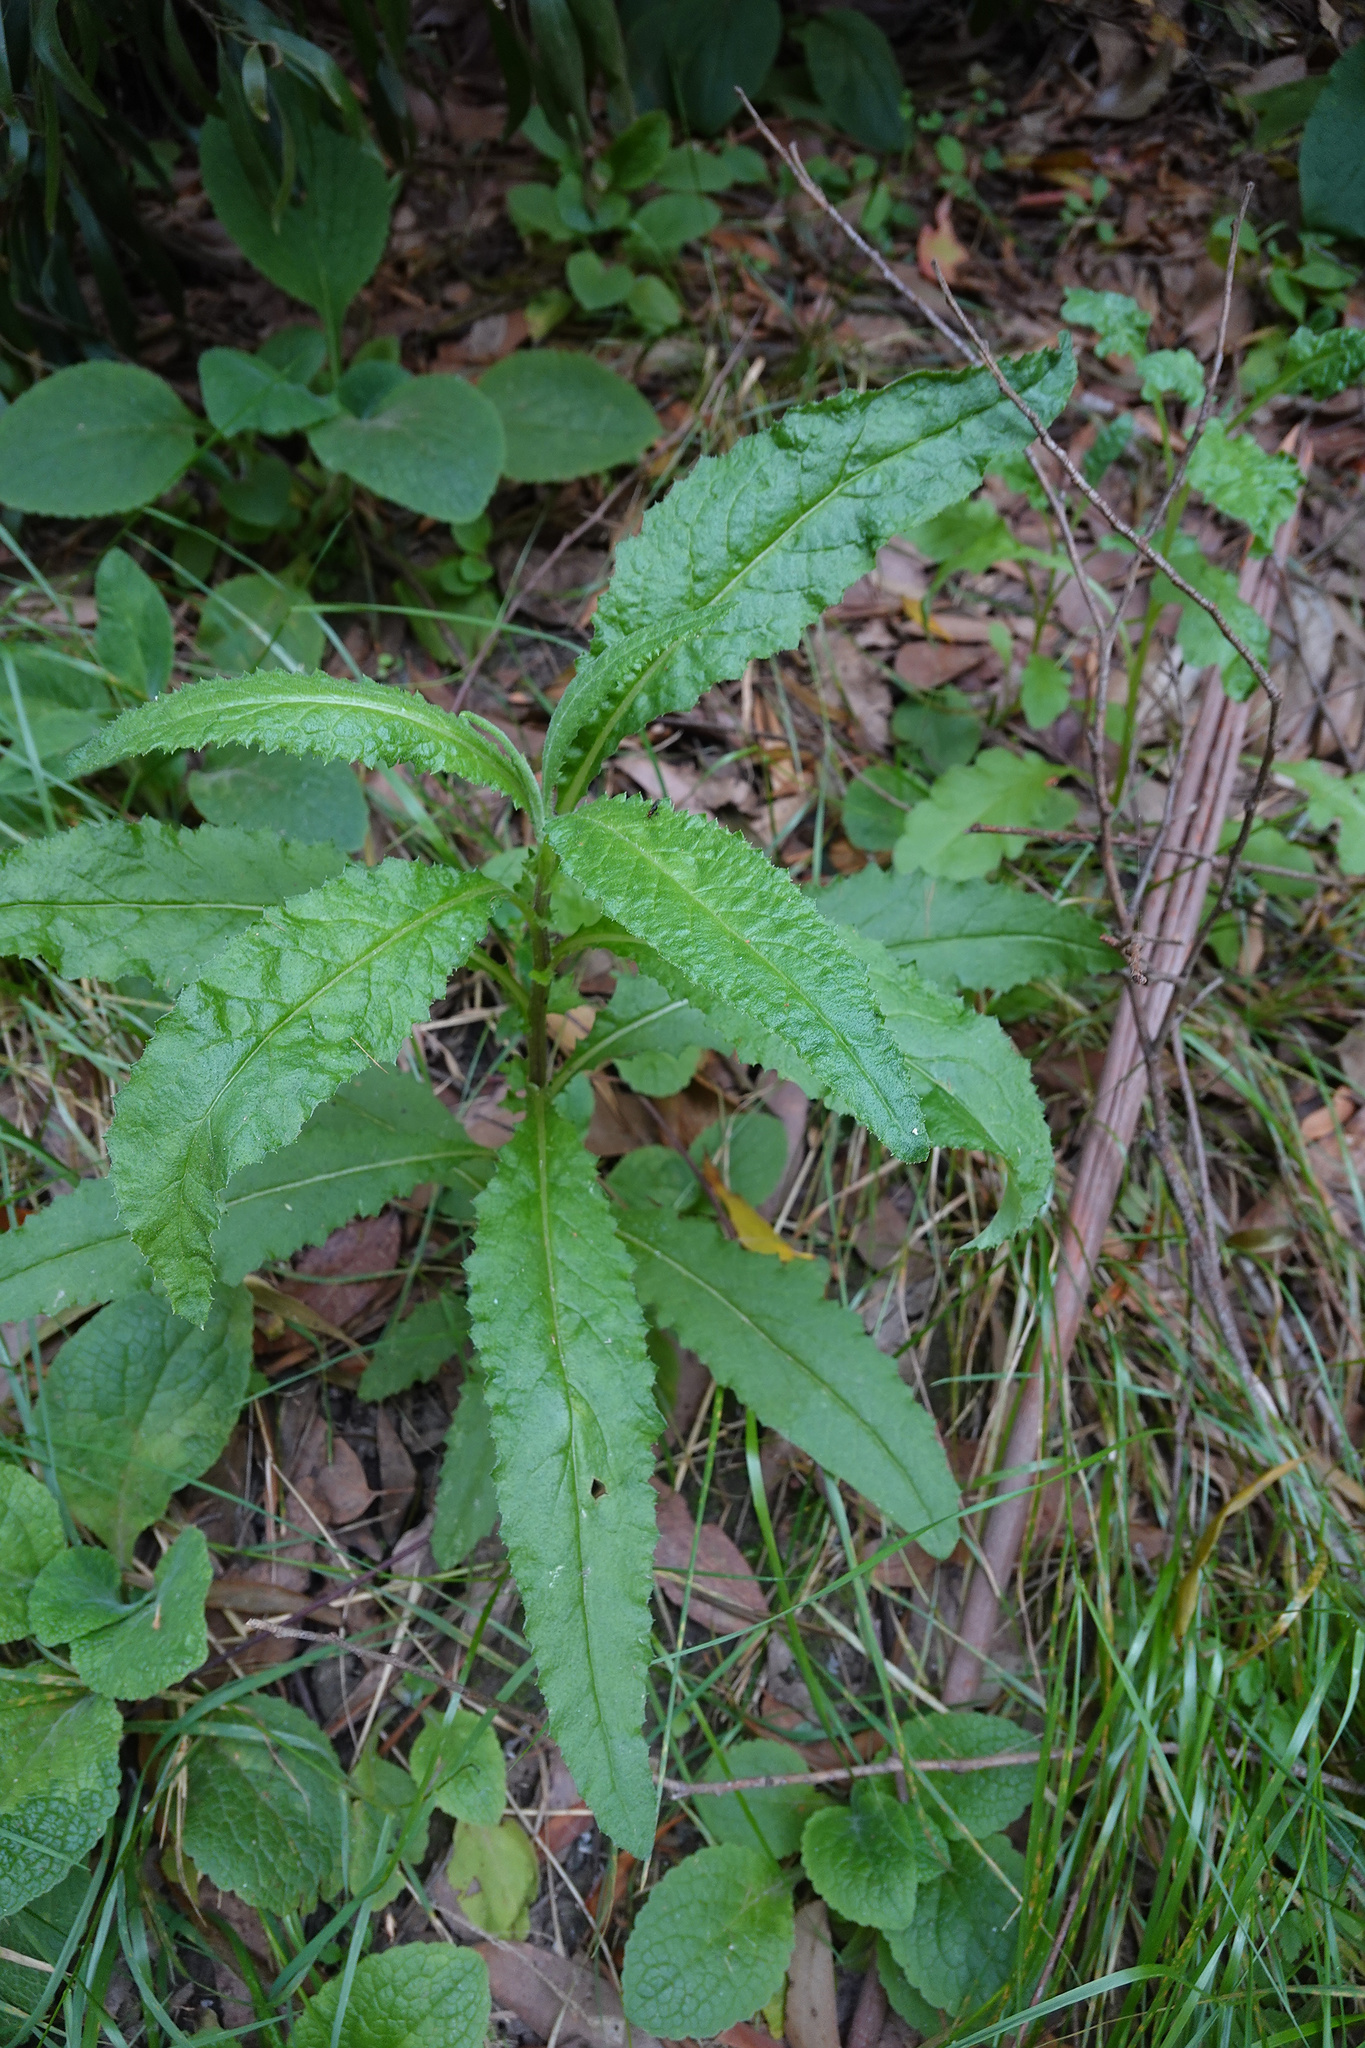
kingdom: Plantae
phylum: Tracheophyta
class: Magnoliopsida
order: Asterales
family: Asteraceae
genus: Senecio
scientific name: Senecio minimus
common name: Toothed fireweed
